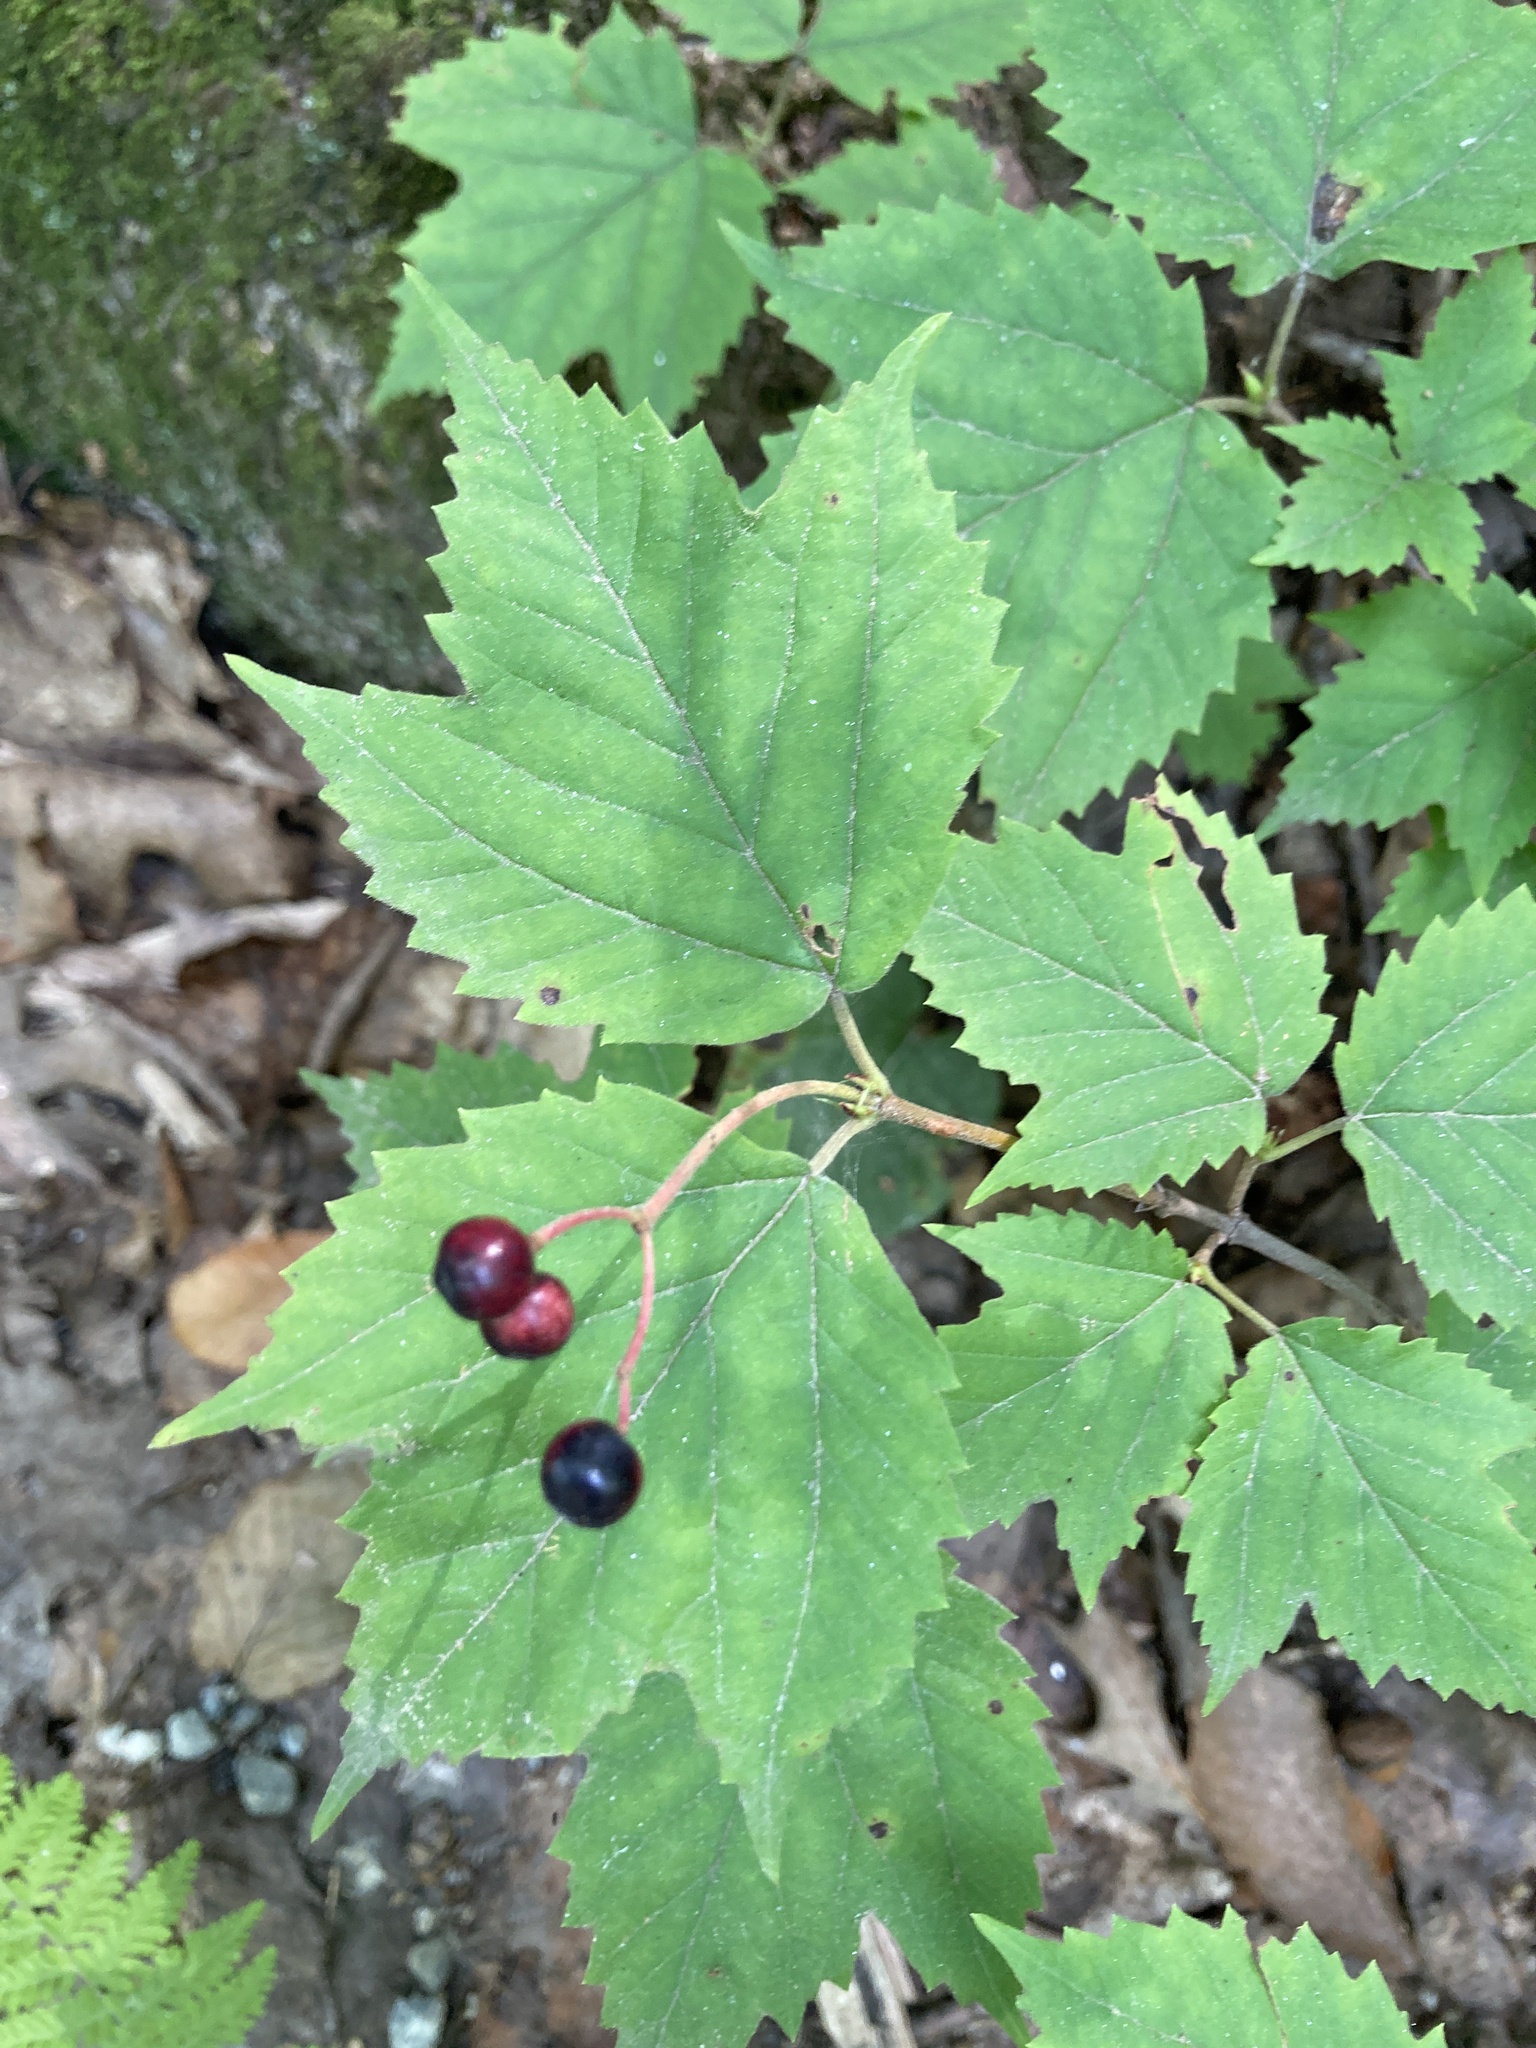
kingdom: Plantae
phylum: Tracheophyta
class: Magnoliopsida
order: Dipsacales
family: Viburnaceae
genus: Viburnum
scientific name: Viburnum acerifolium
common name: Dockmackie
